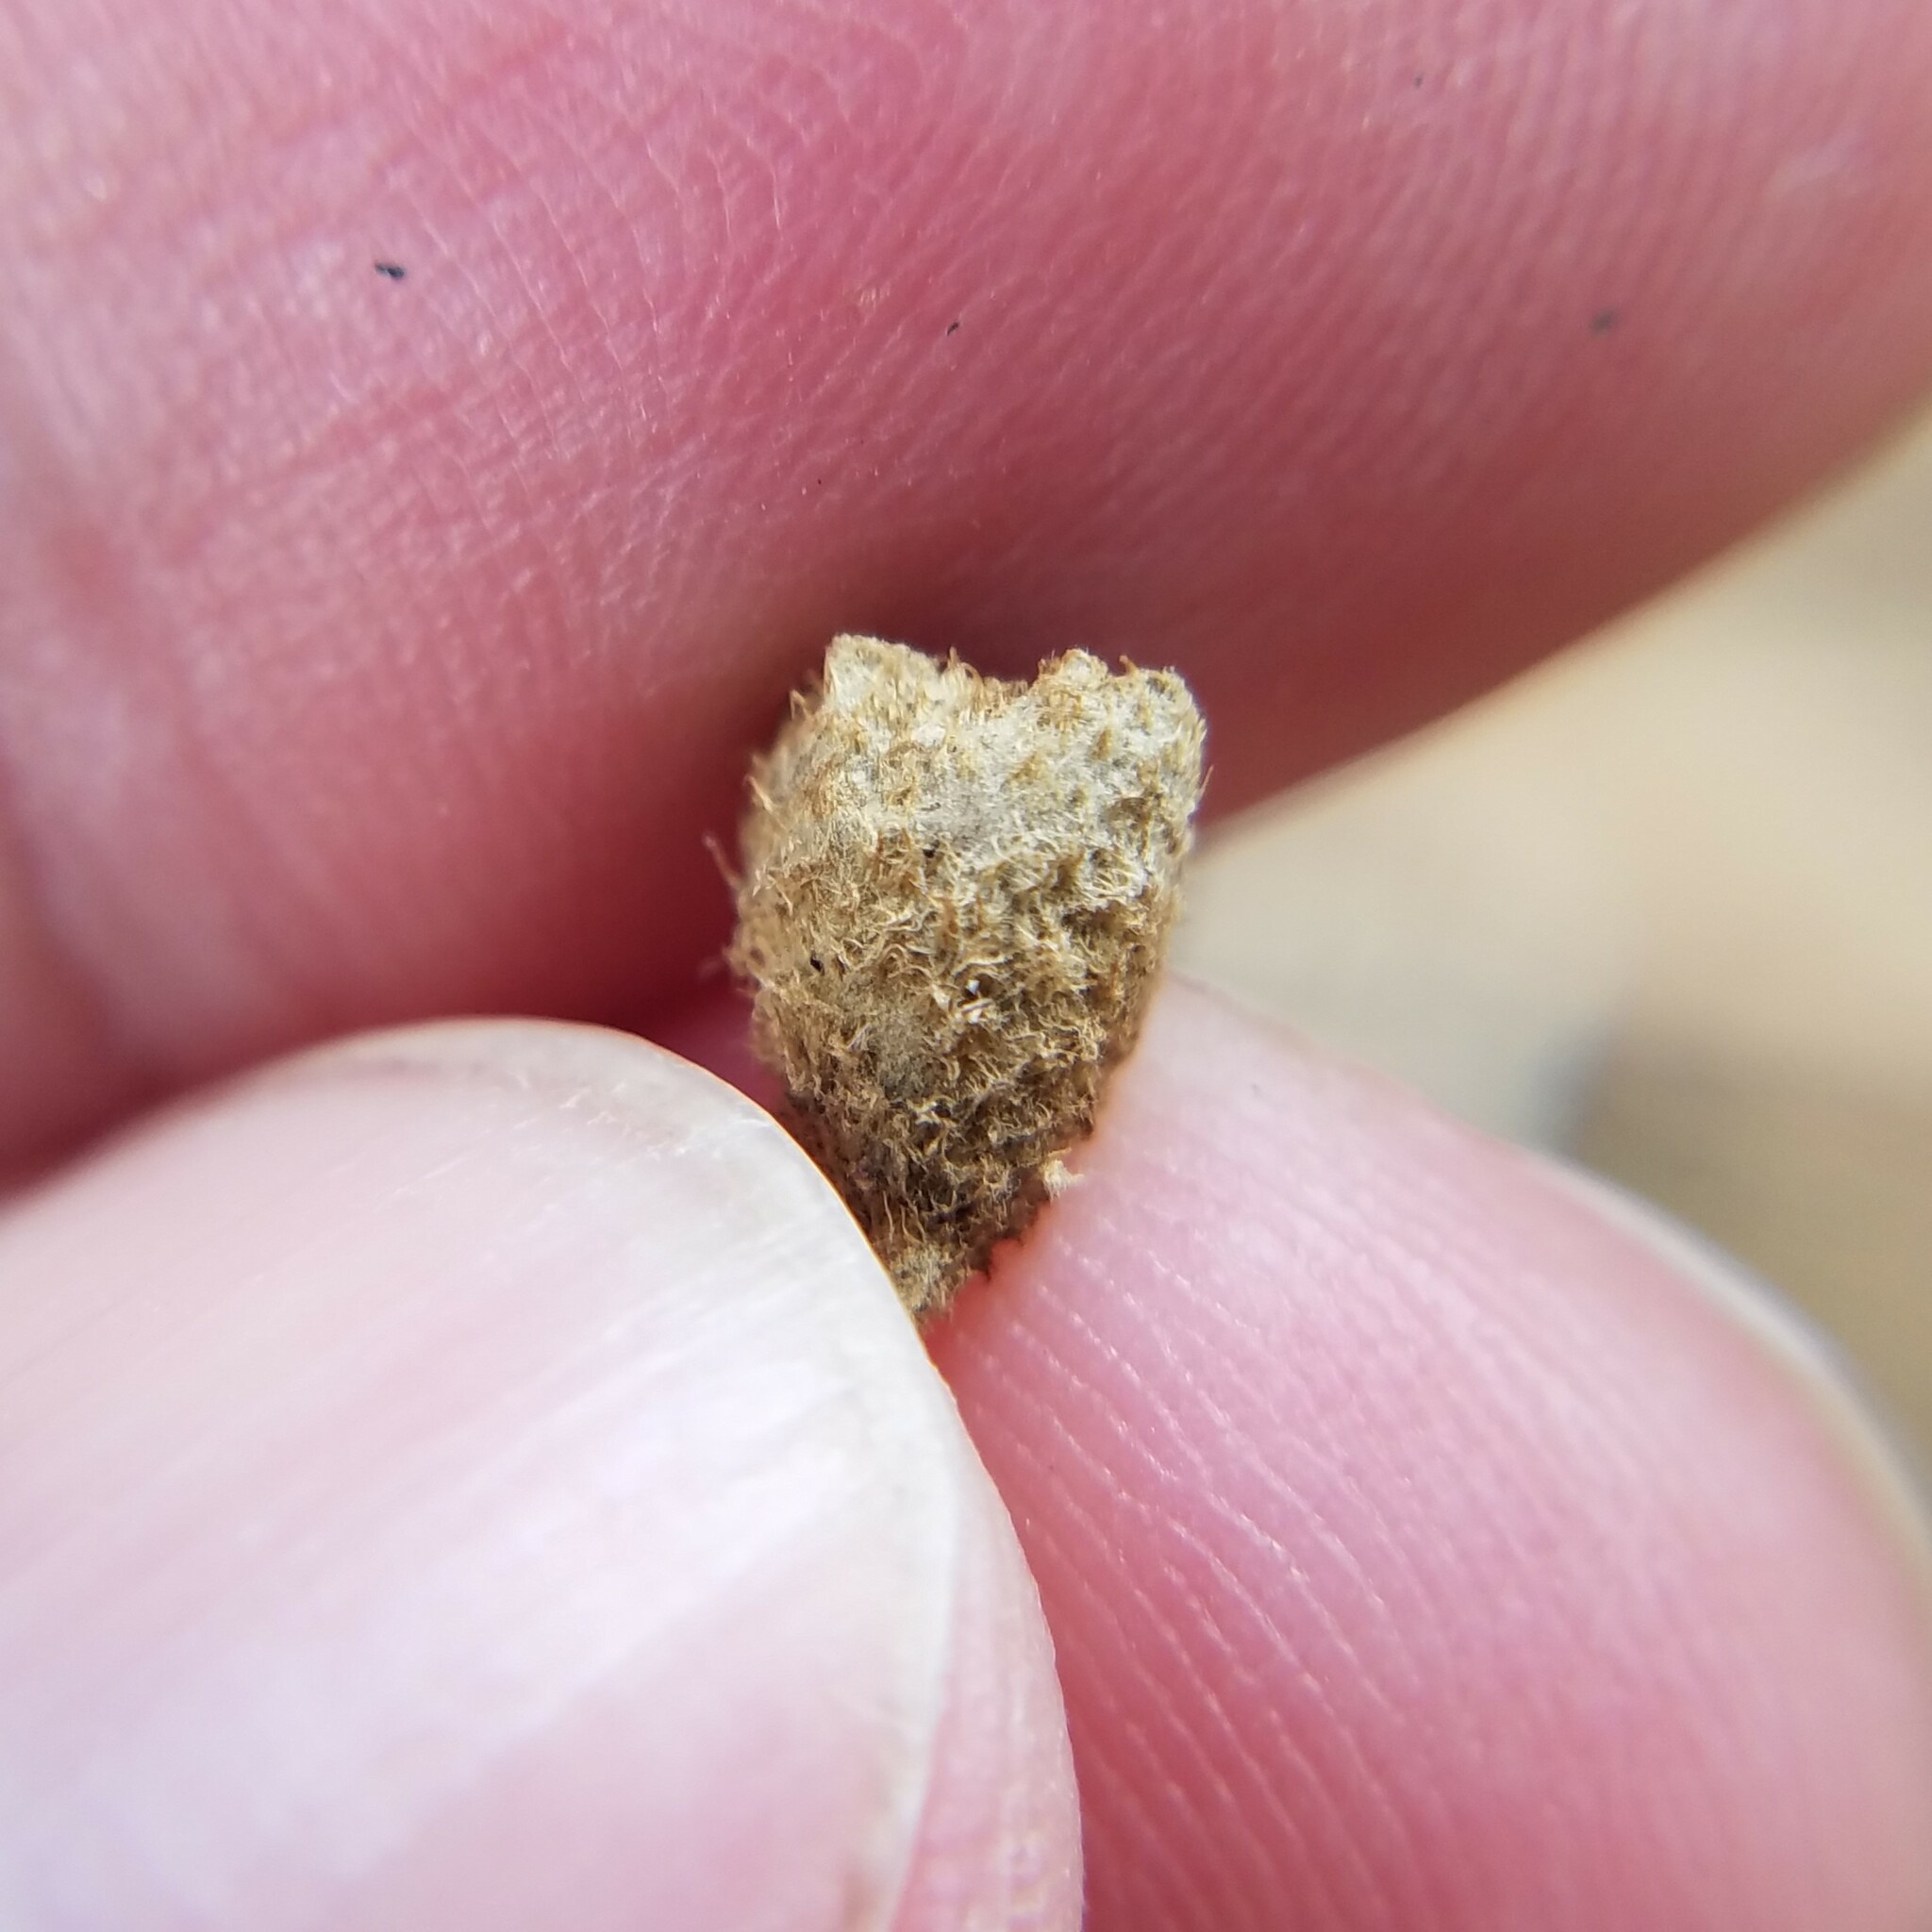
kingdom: Fungi
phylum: Basidiomycota
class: Agaricomycetes
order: Agaricales
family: Agaricaceae
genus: Cyathus
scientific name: Cyathus stercoreus
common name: Dung bird's nest
